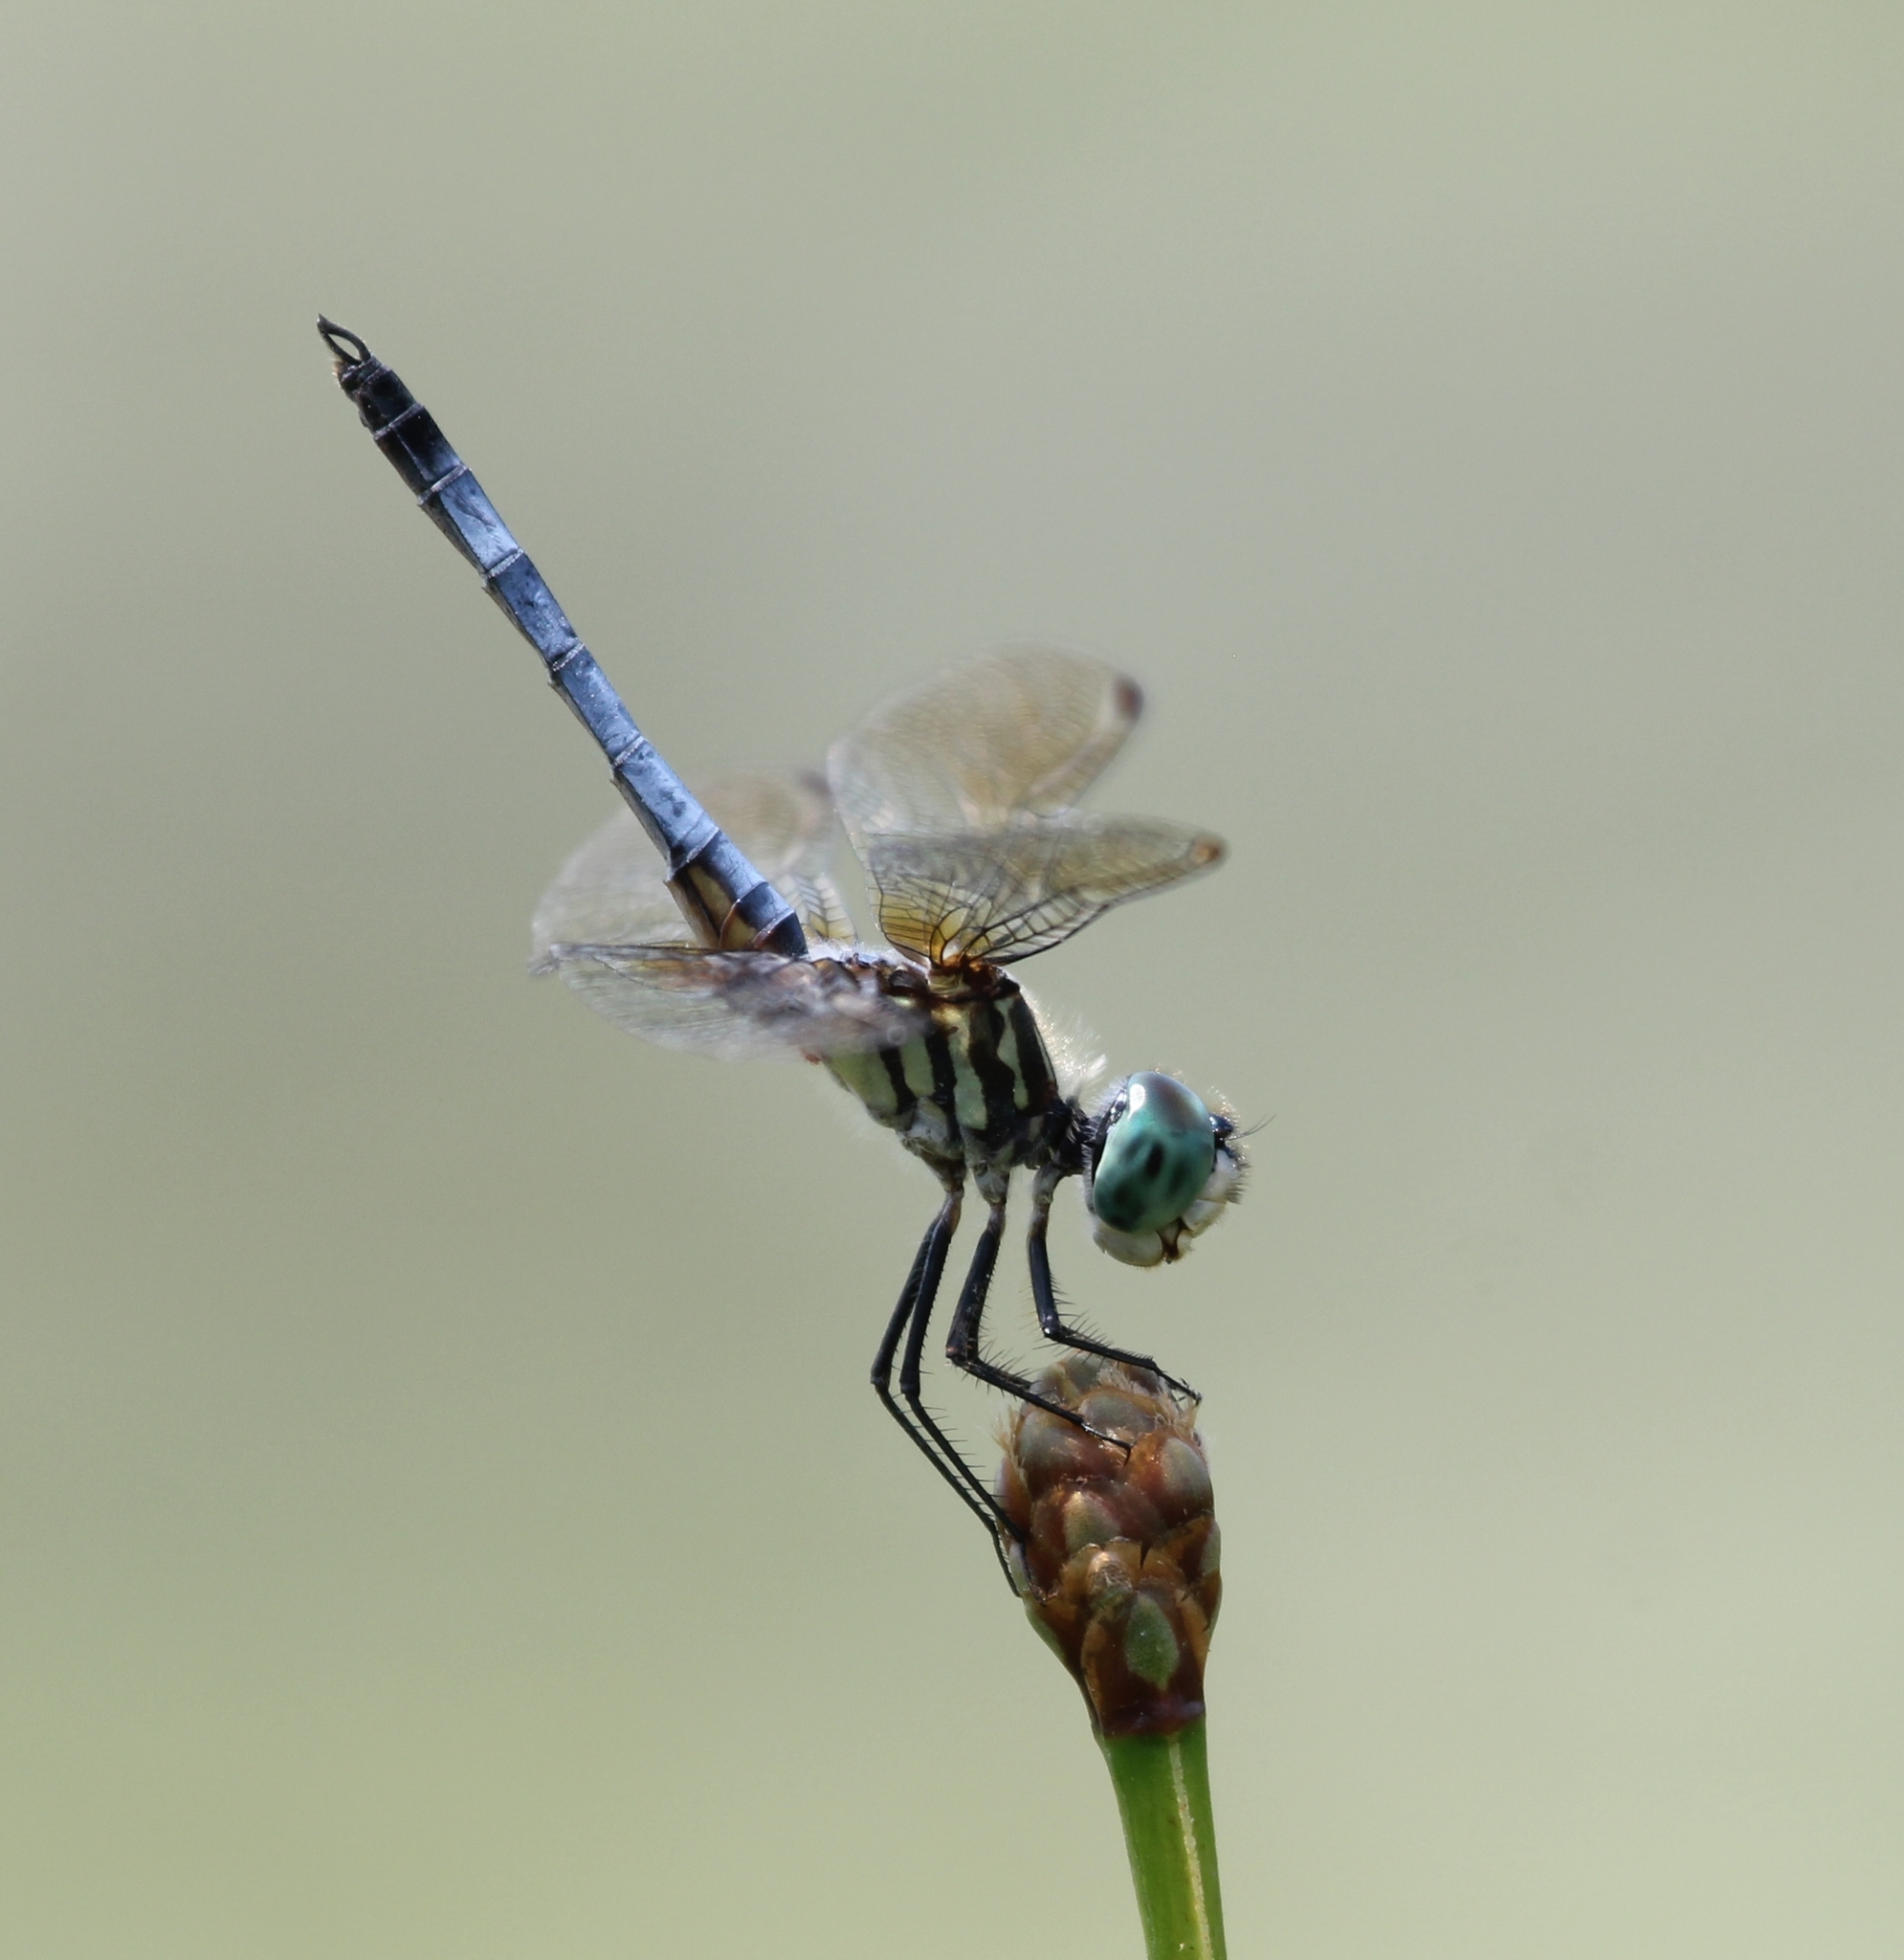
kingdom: Animalia
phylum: Arthropoda
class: Insecta
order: Odonata
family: Libellulidae
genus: Pachydiplax
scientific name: Pachydiplax longipennis
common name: Blue dasher
